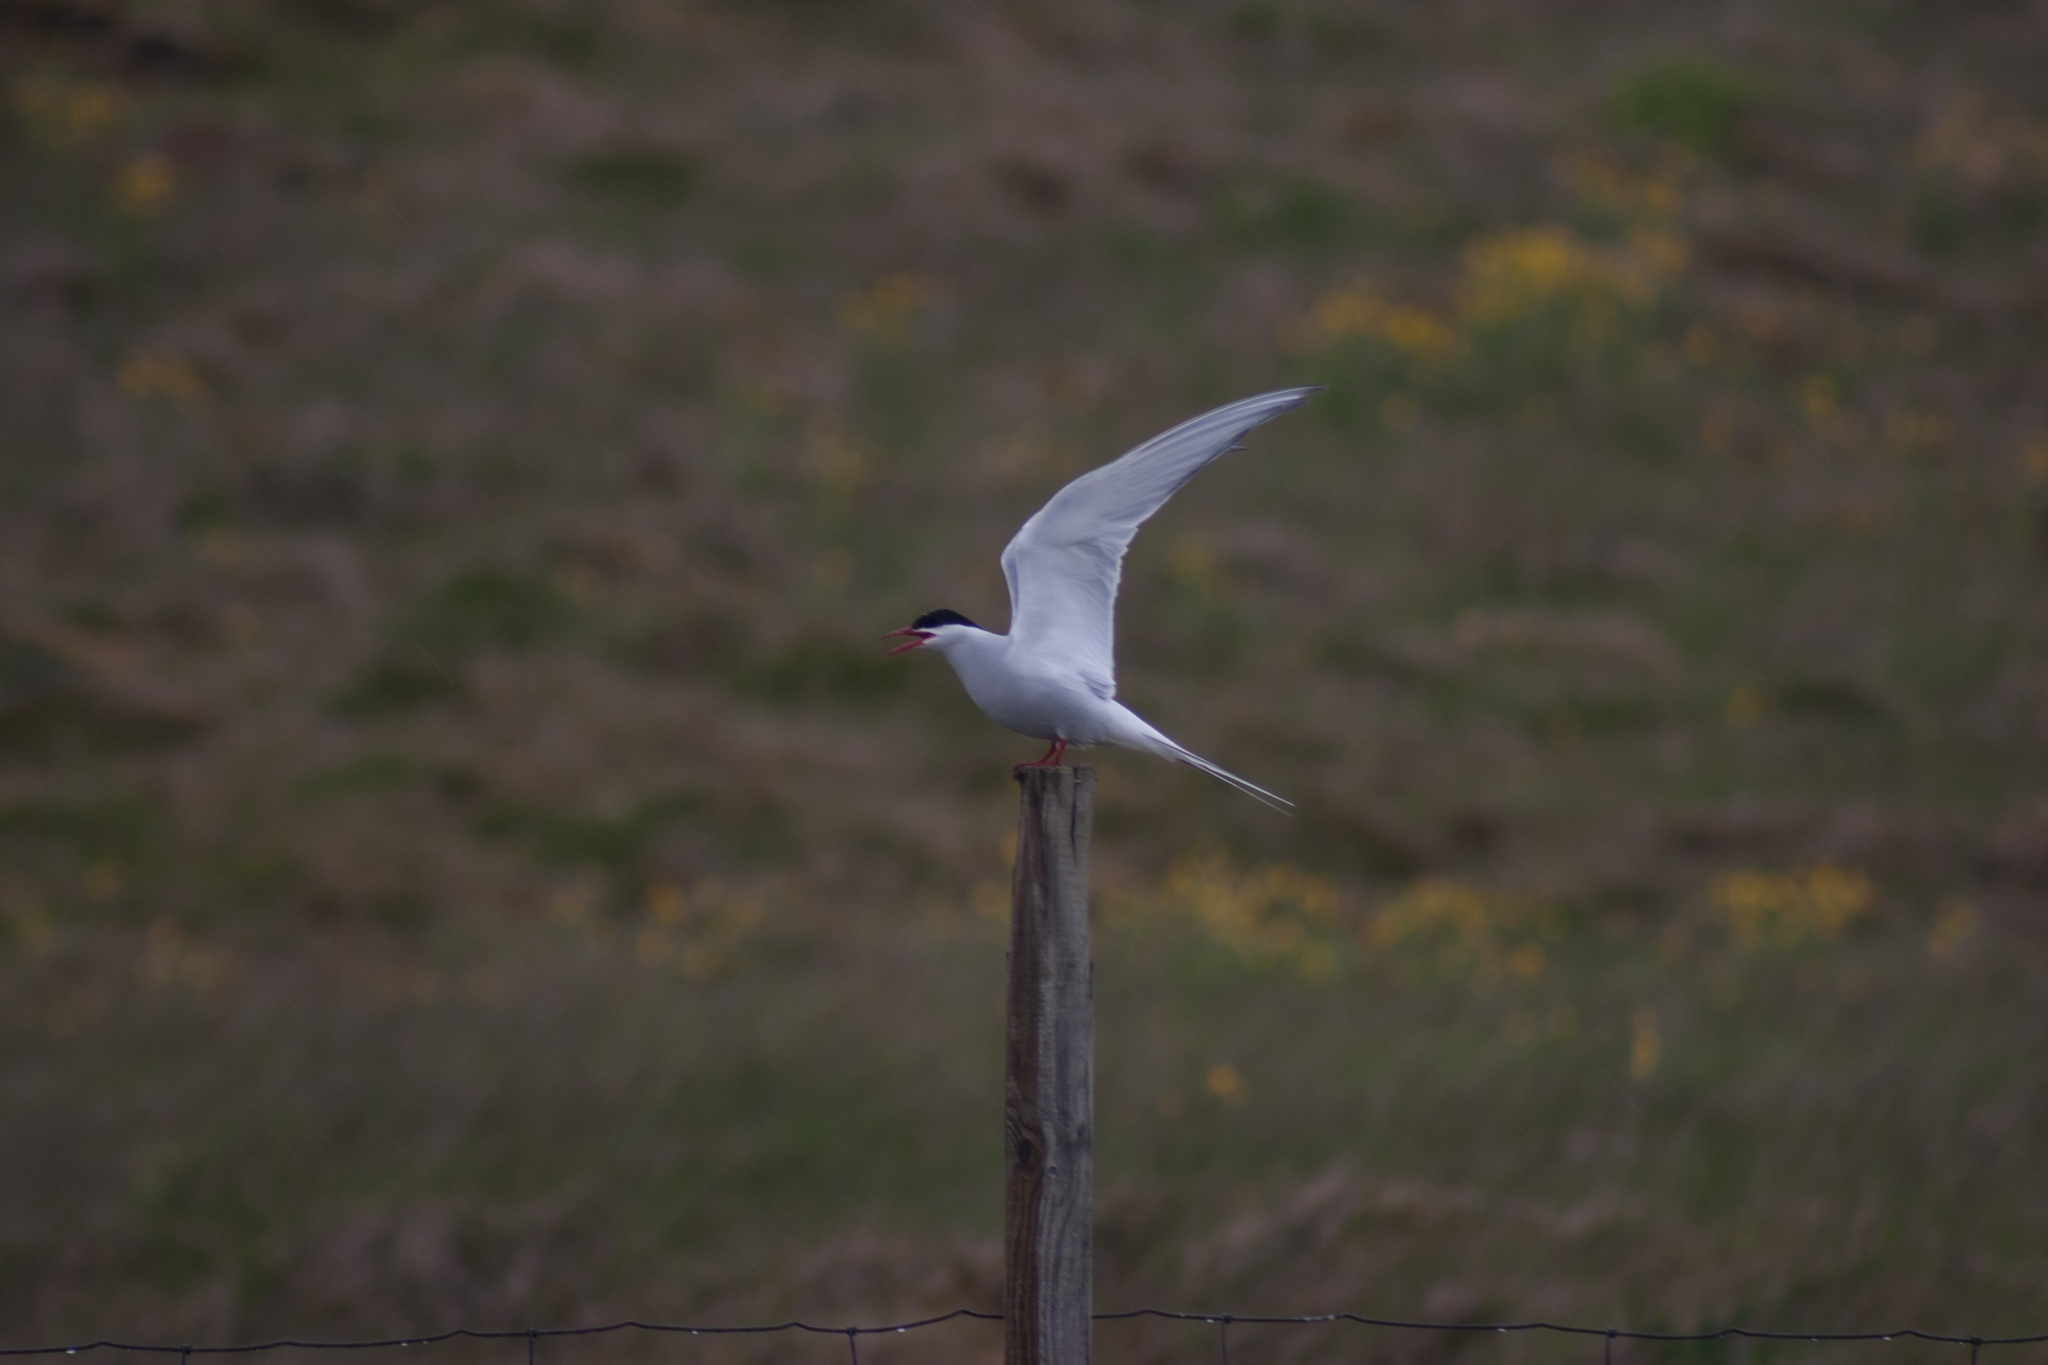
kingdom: Animalia
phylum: Chordata
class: Aves
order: Charadriiformes
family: Laridae
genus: Sterna
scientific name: Sterna paradisaea
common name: Arctic tern
